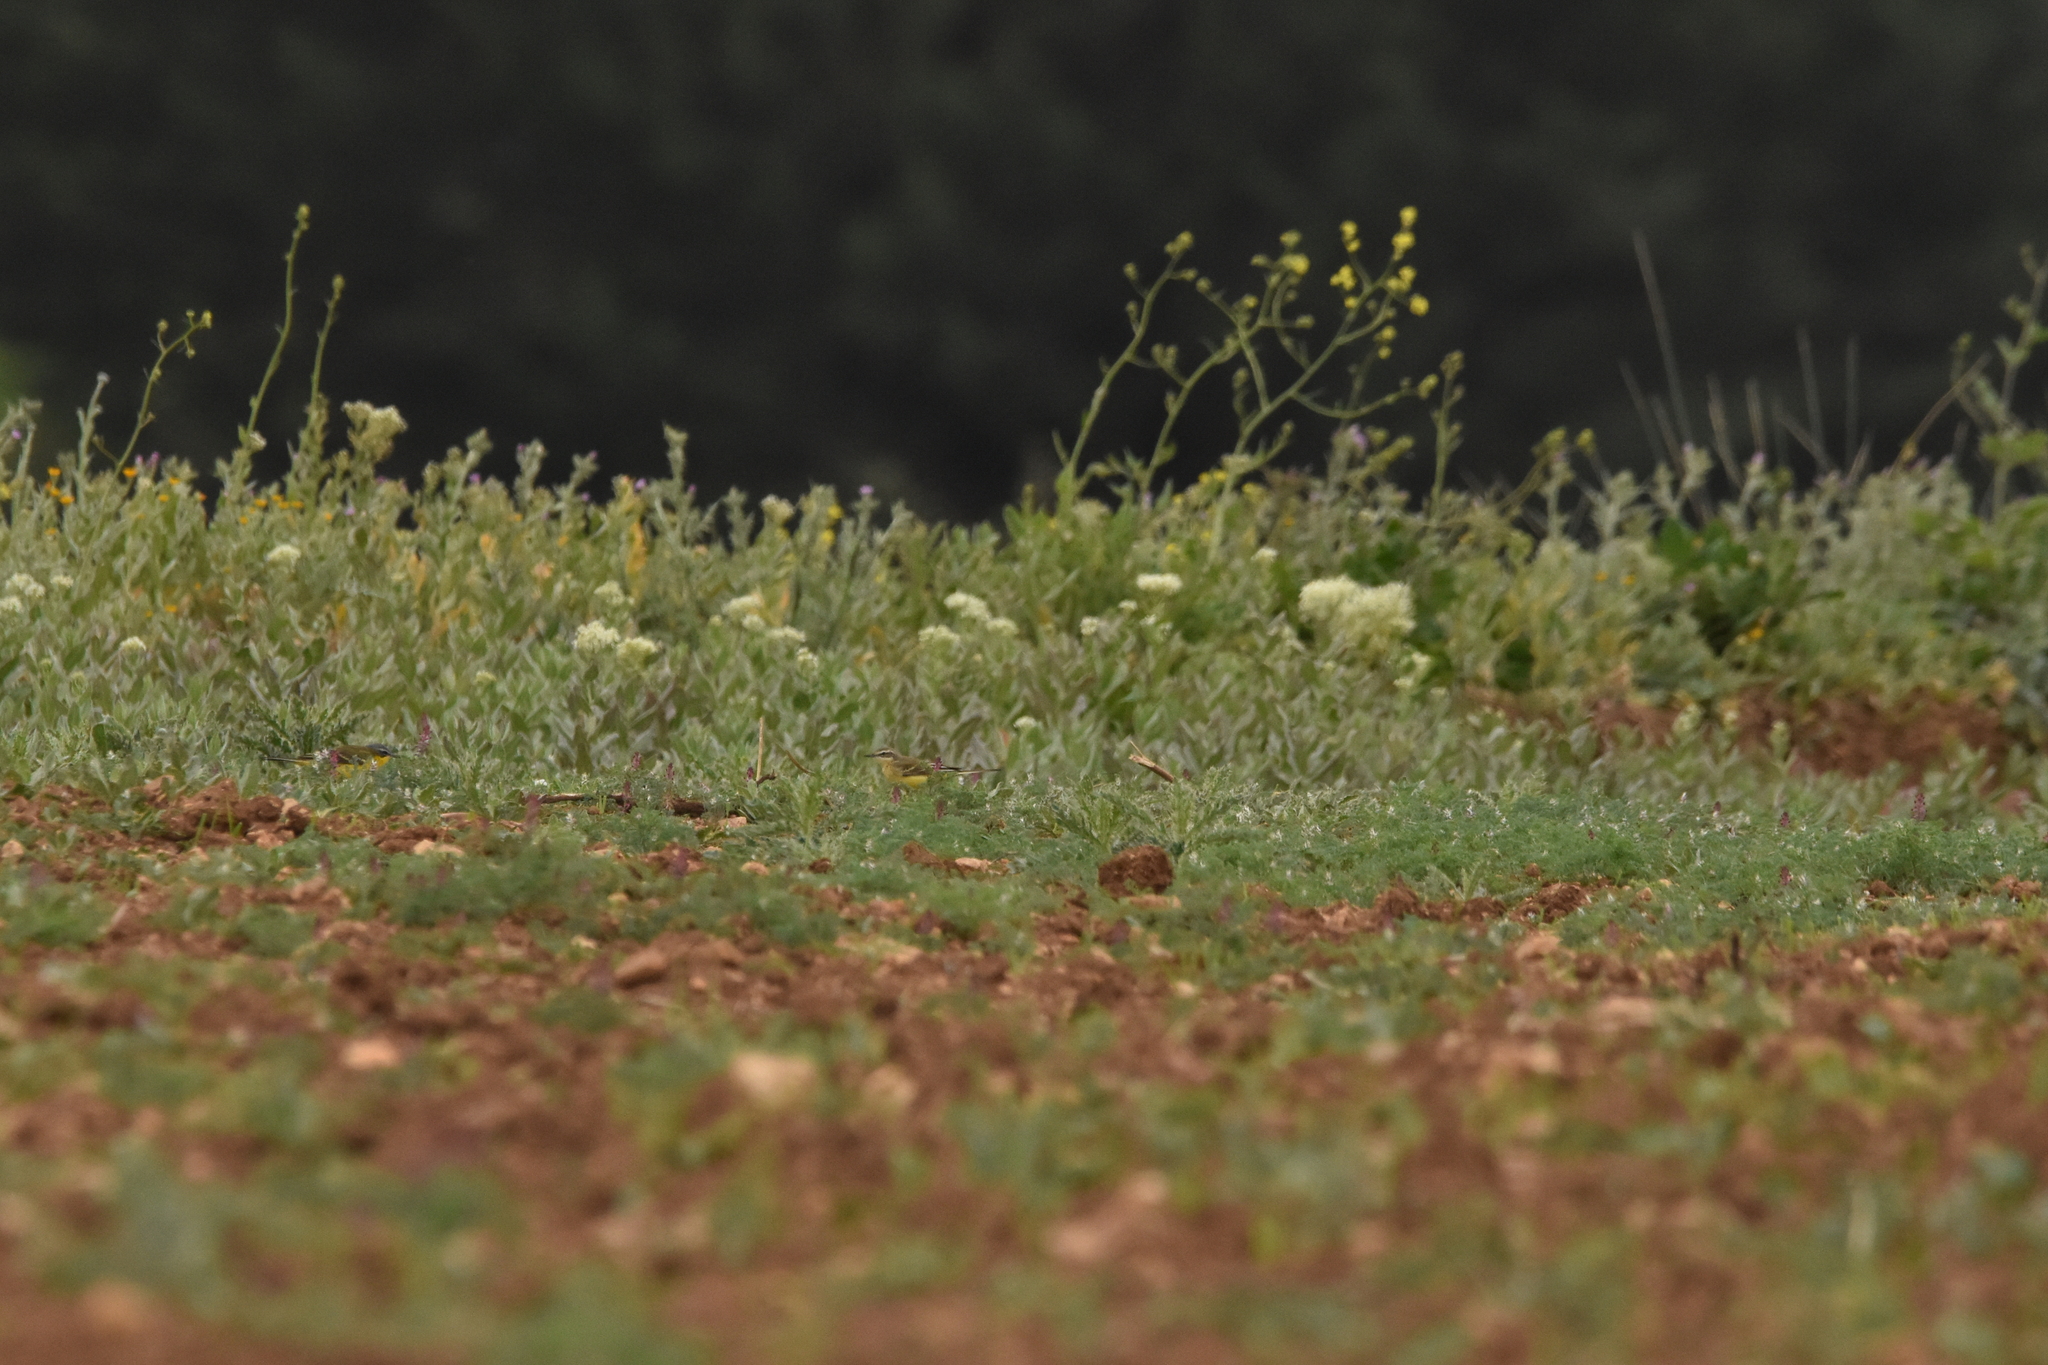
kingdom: Animalia
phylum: Chordata
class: Aves
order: Passeriformes
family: Motacillidae
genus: Motacilla
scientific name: Motacilla flava
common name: Western yellow wagtail
